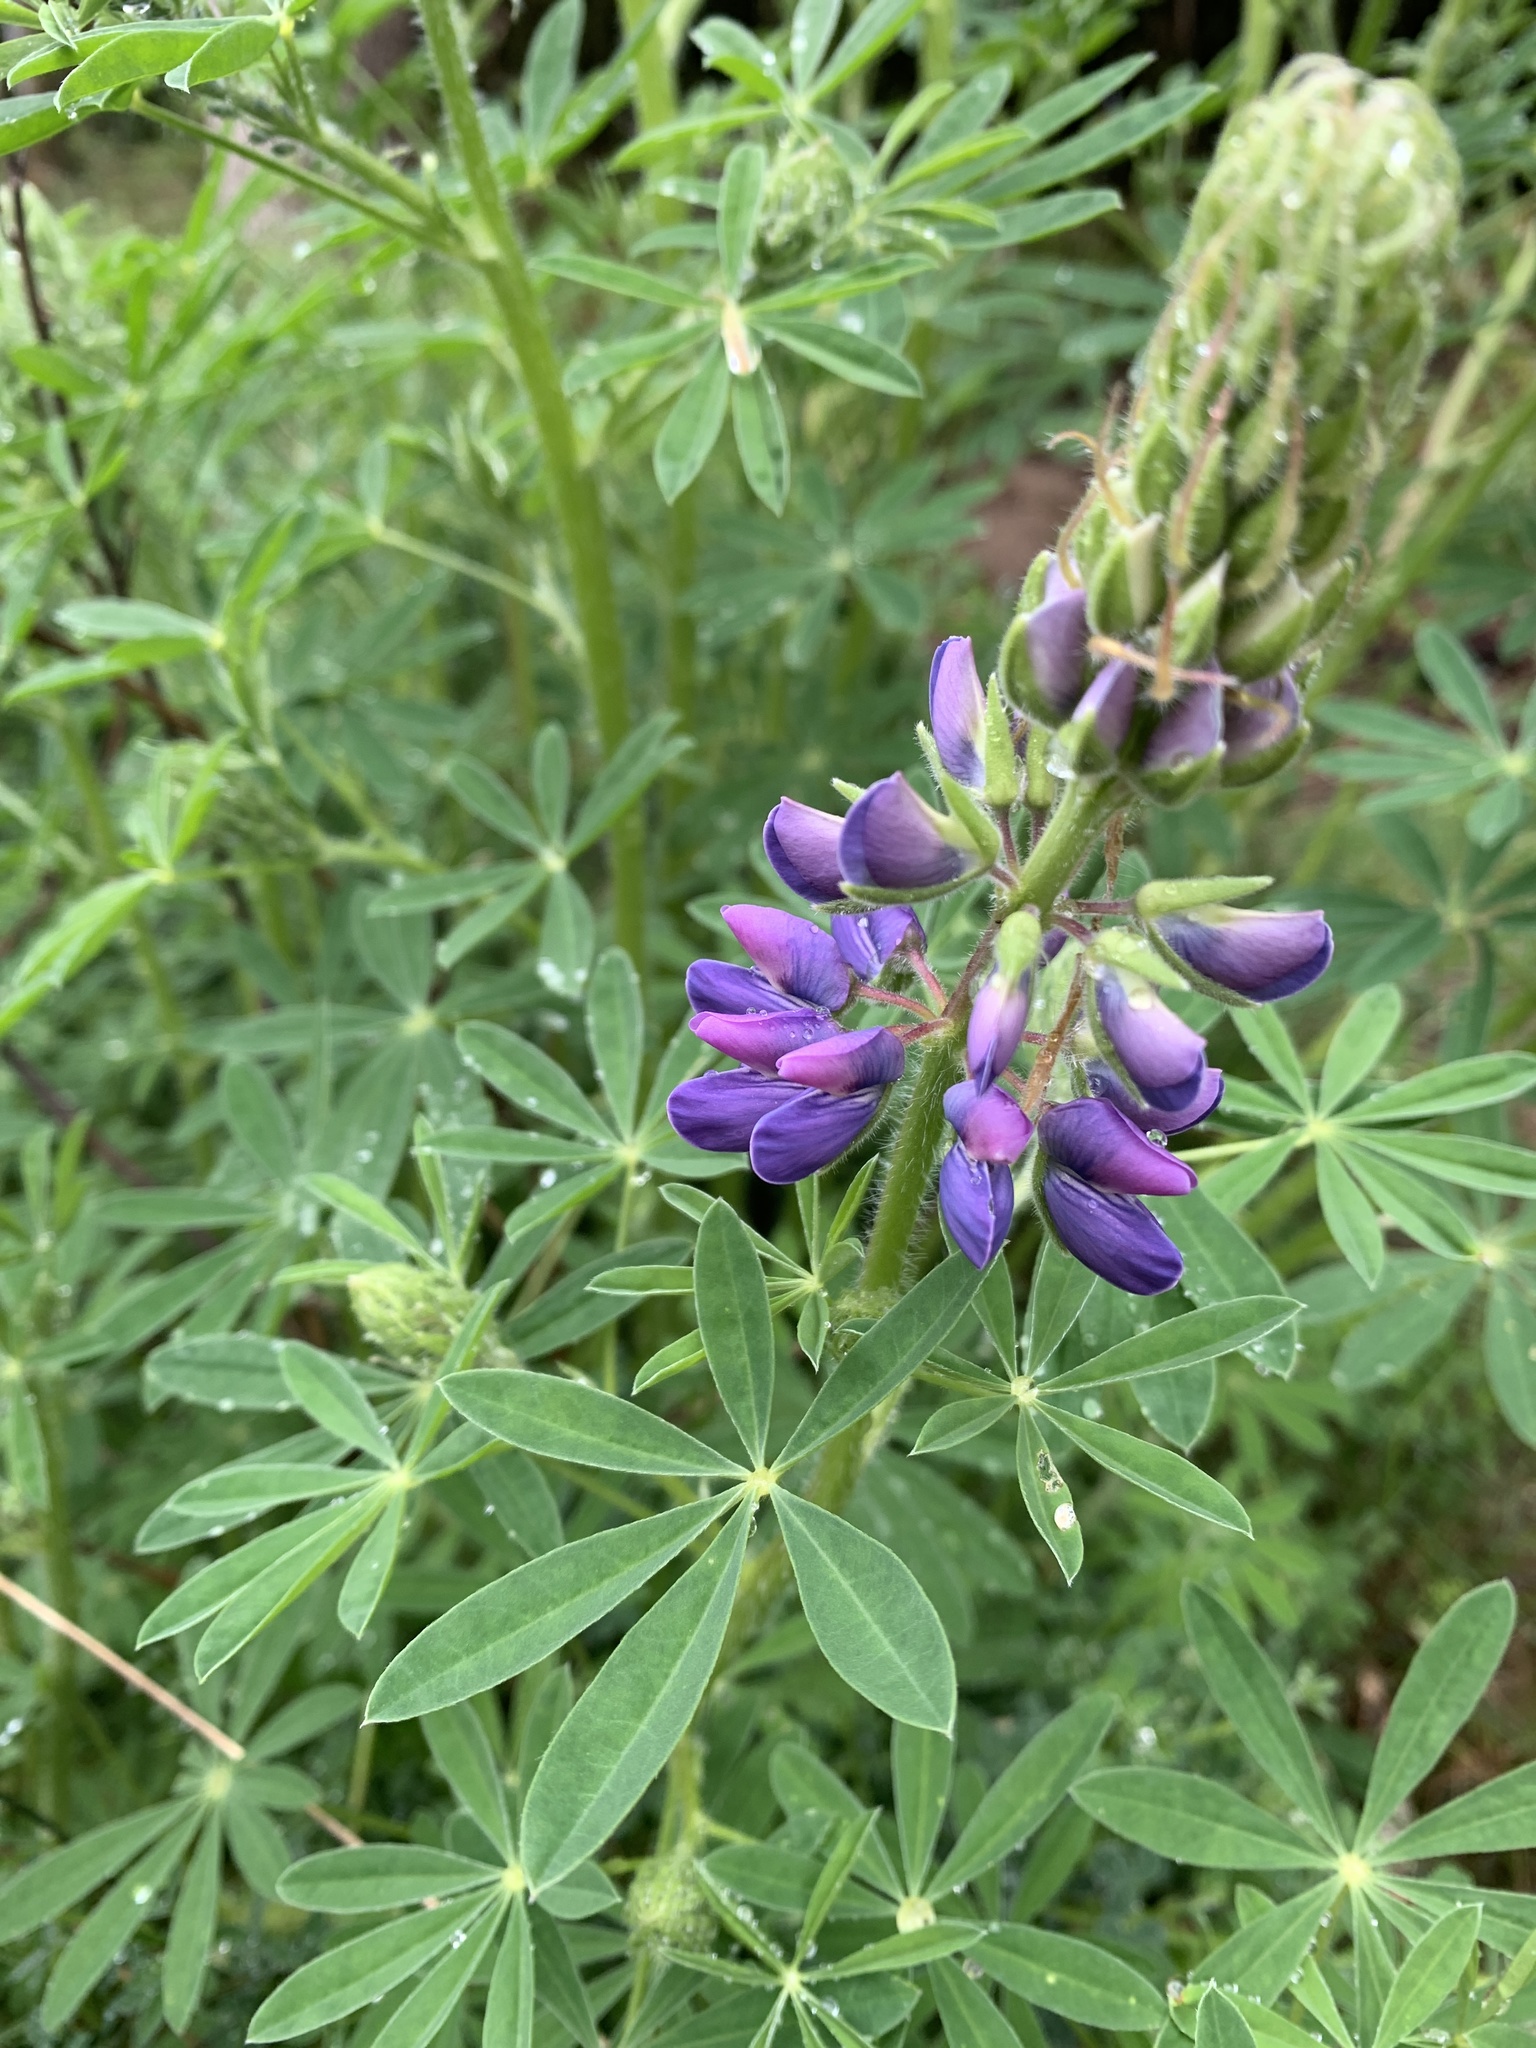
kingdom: Plantae
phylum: Tracheophyta
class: Magnoliopsida
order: Fabales
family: Fabaceae
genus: Lupinus
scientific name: Lupinus rivularis
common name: Riverbank lupine
